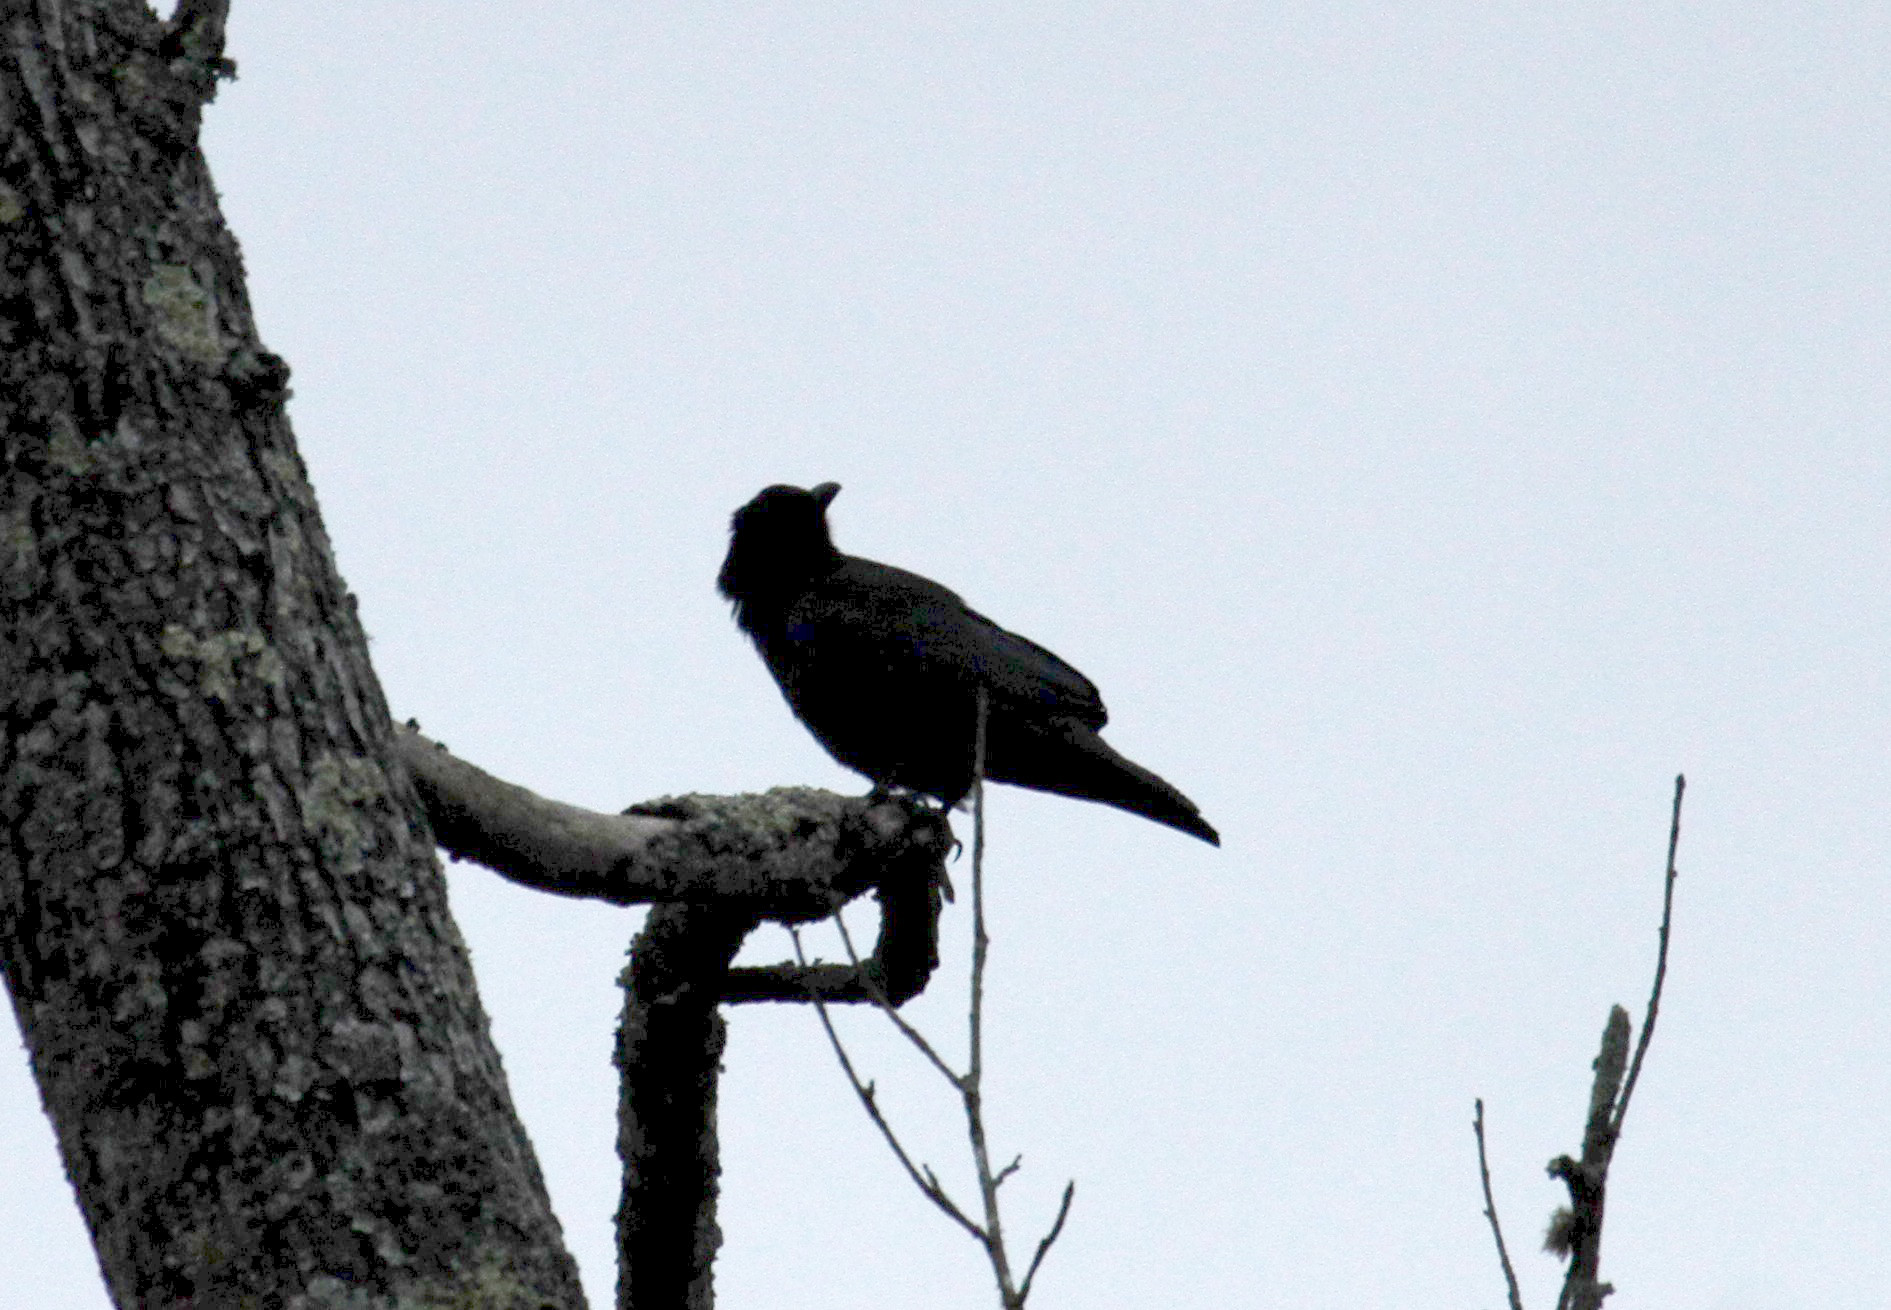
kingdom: Animalia
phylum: Chordata
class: Aves
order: Passeriformes
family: Corvidae
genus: Corvus
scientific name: Corvus ossifragus
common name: Fish crow
